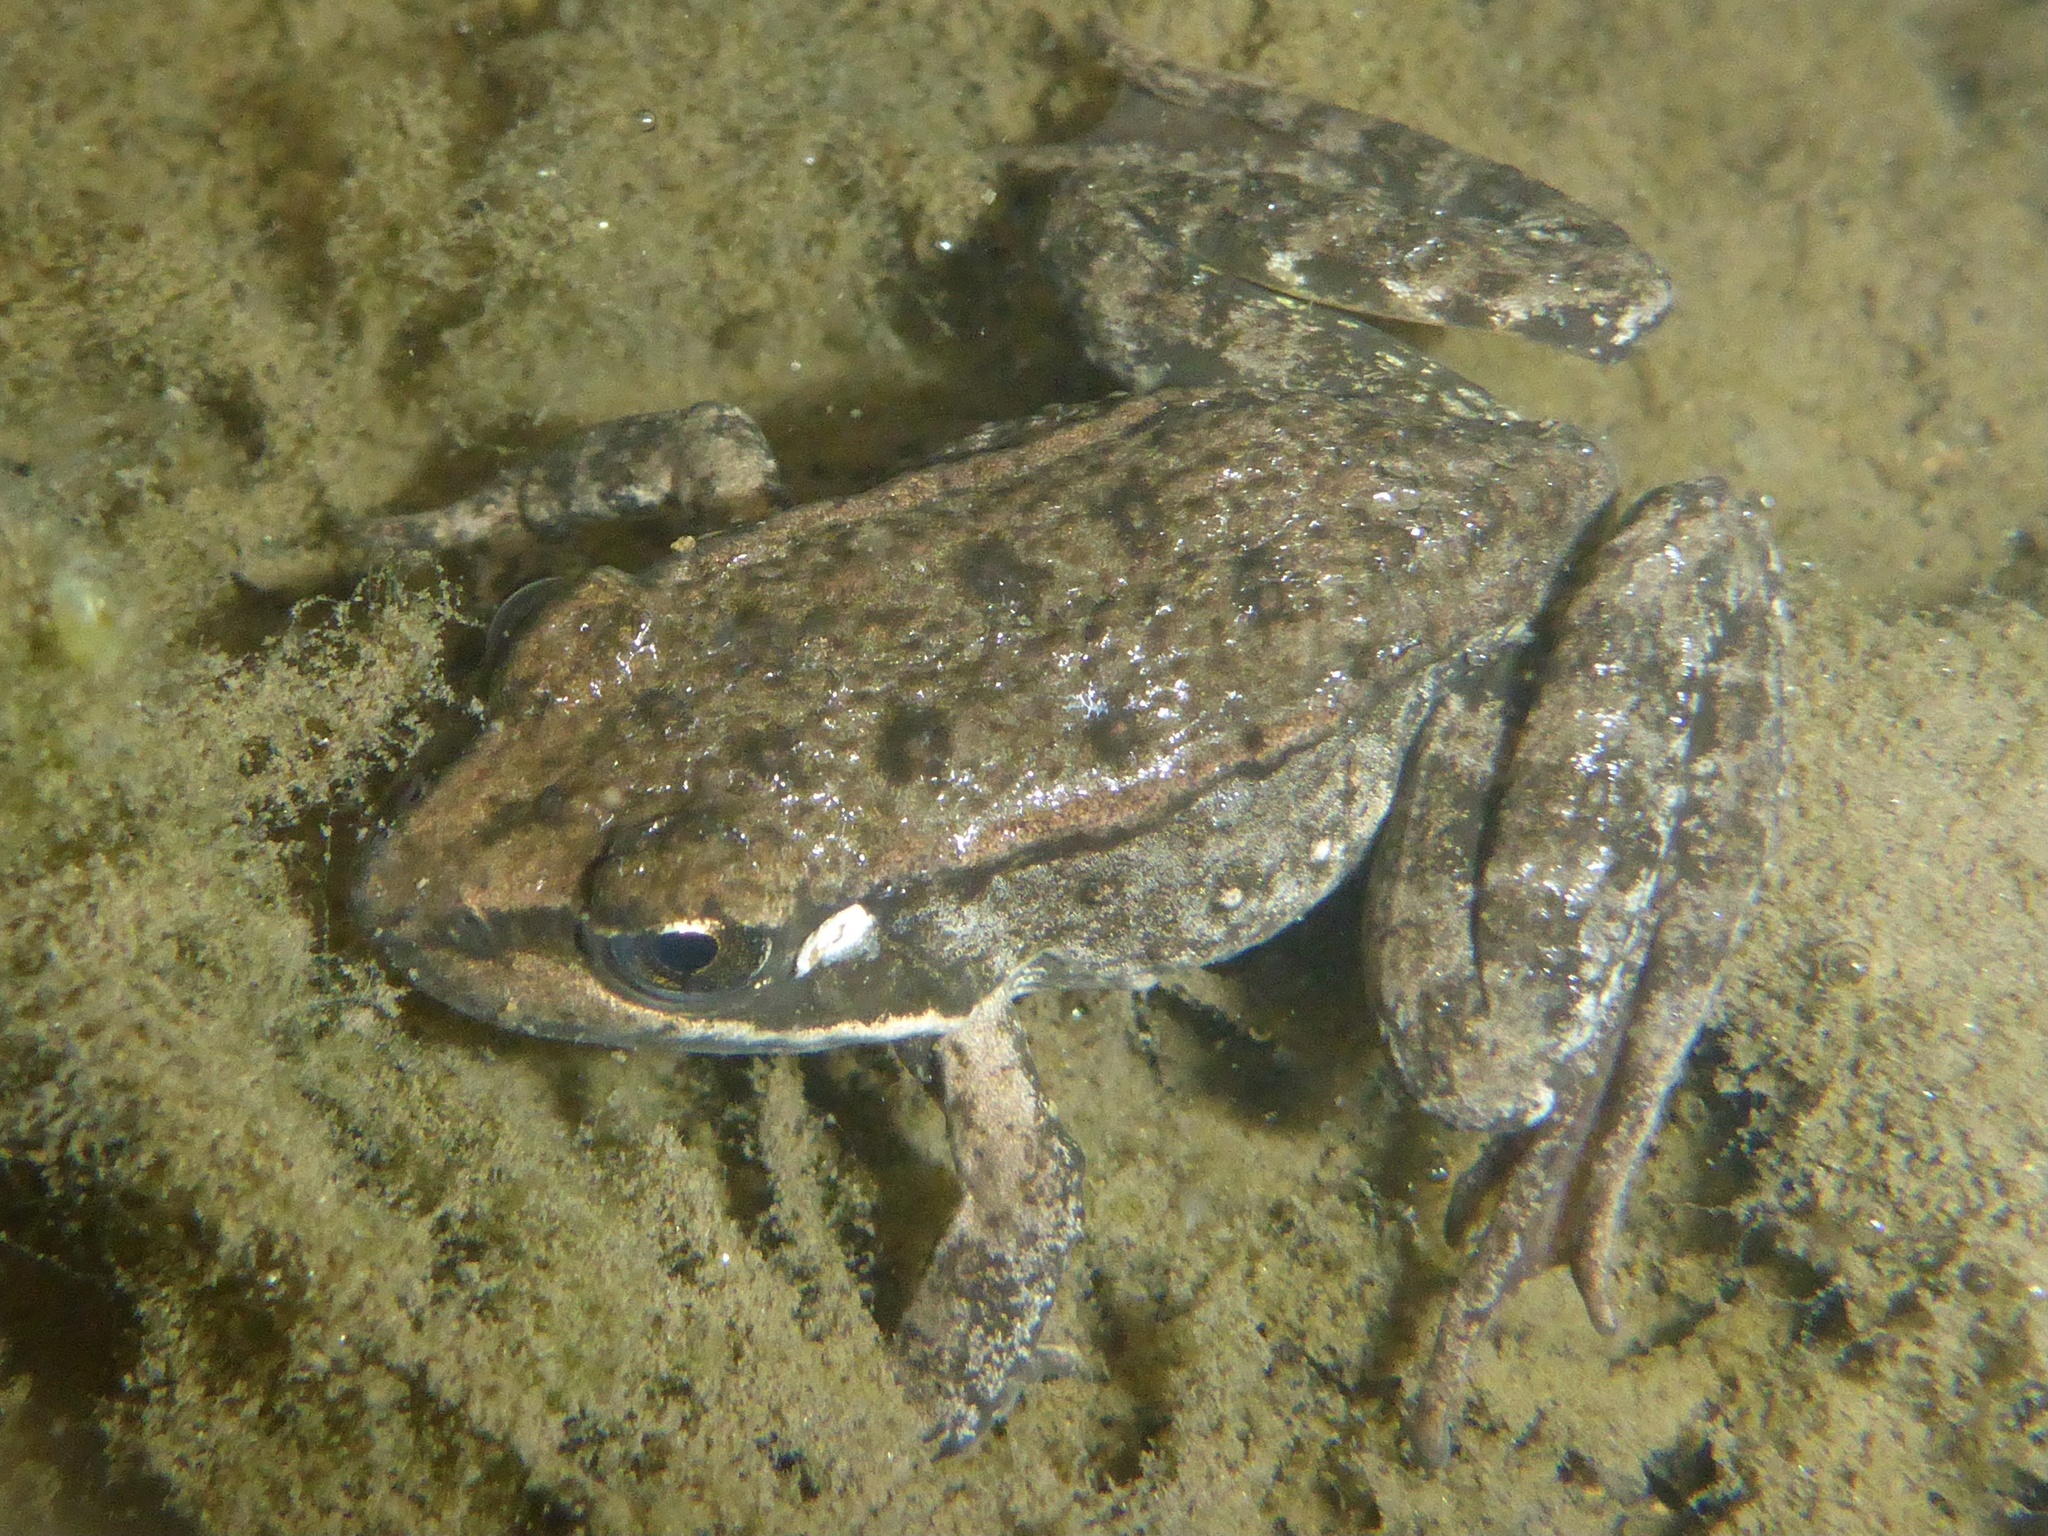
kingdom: Animalia
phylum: Chordata
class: Amphibia
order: Anura
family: Ranidae
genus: Rana
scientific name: Rana draytonii
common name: California red-legged frog
